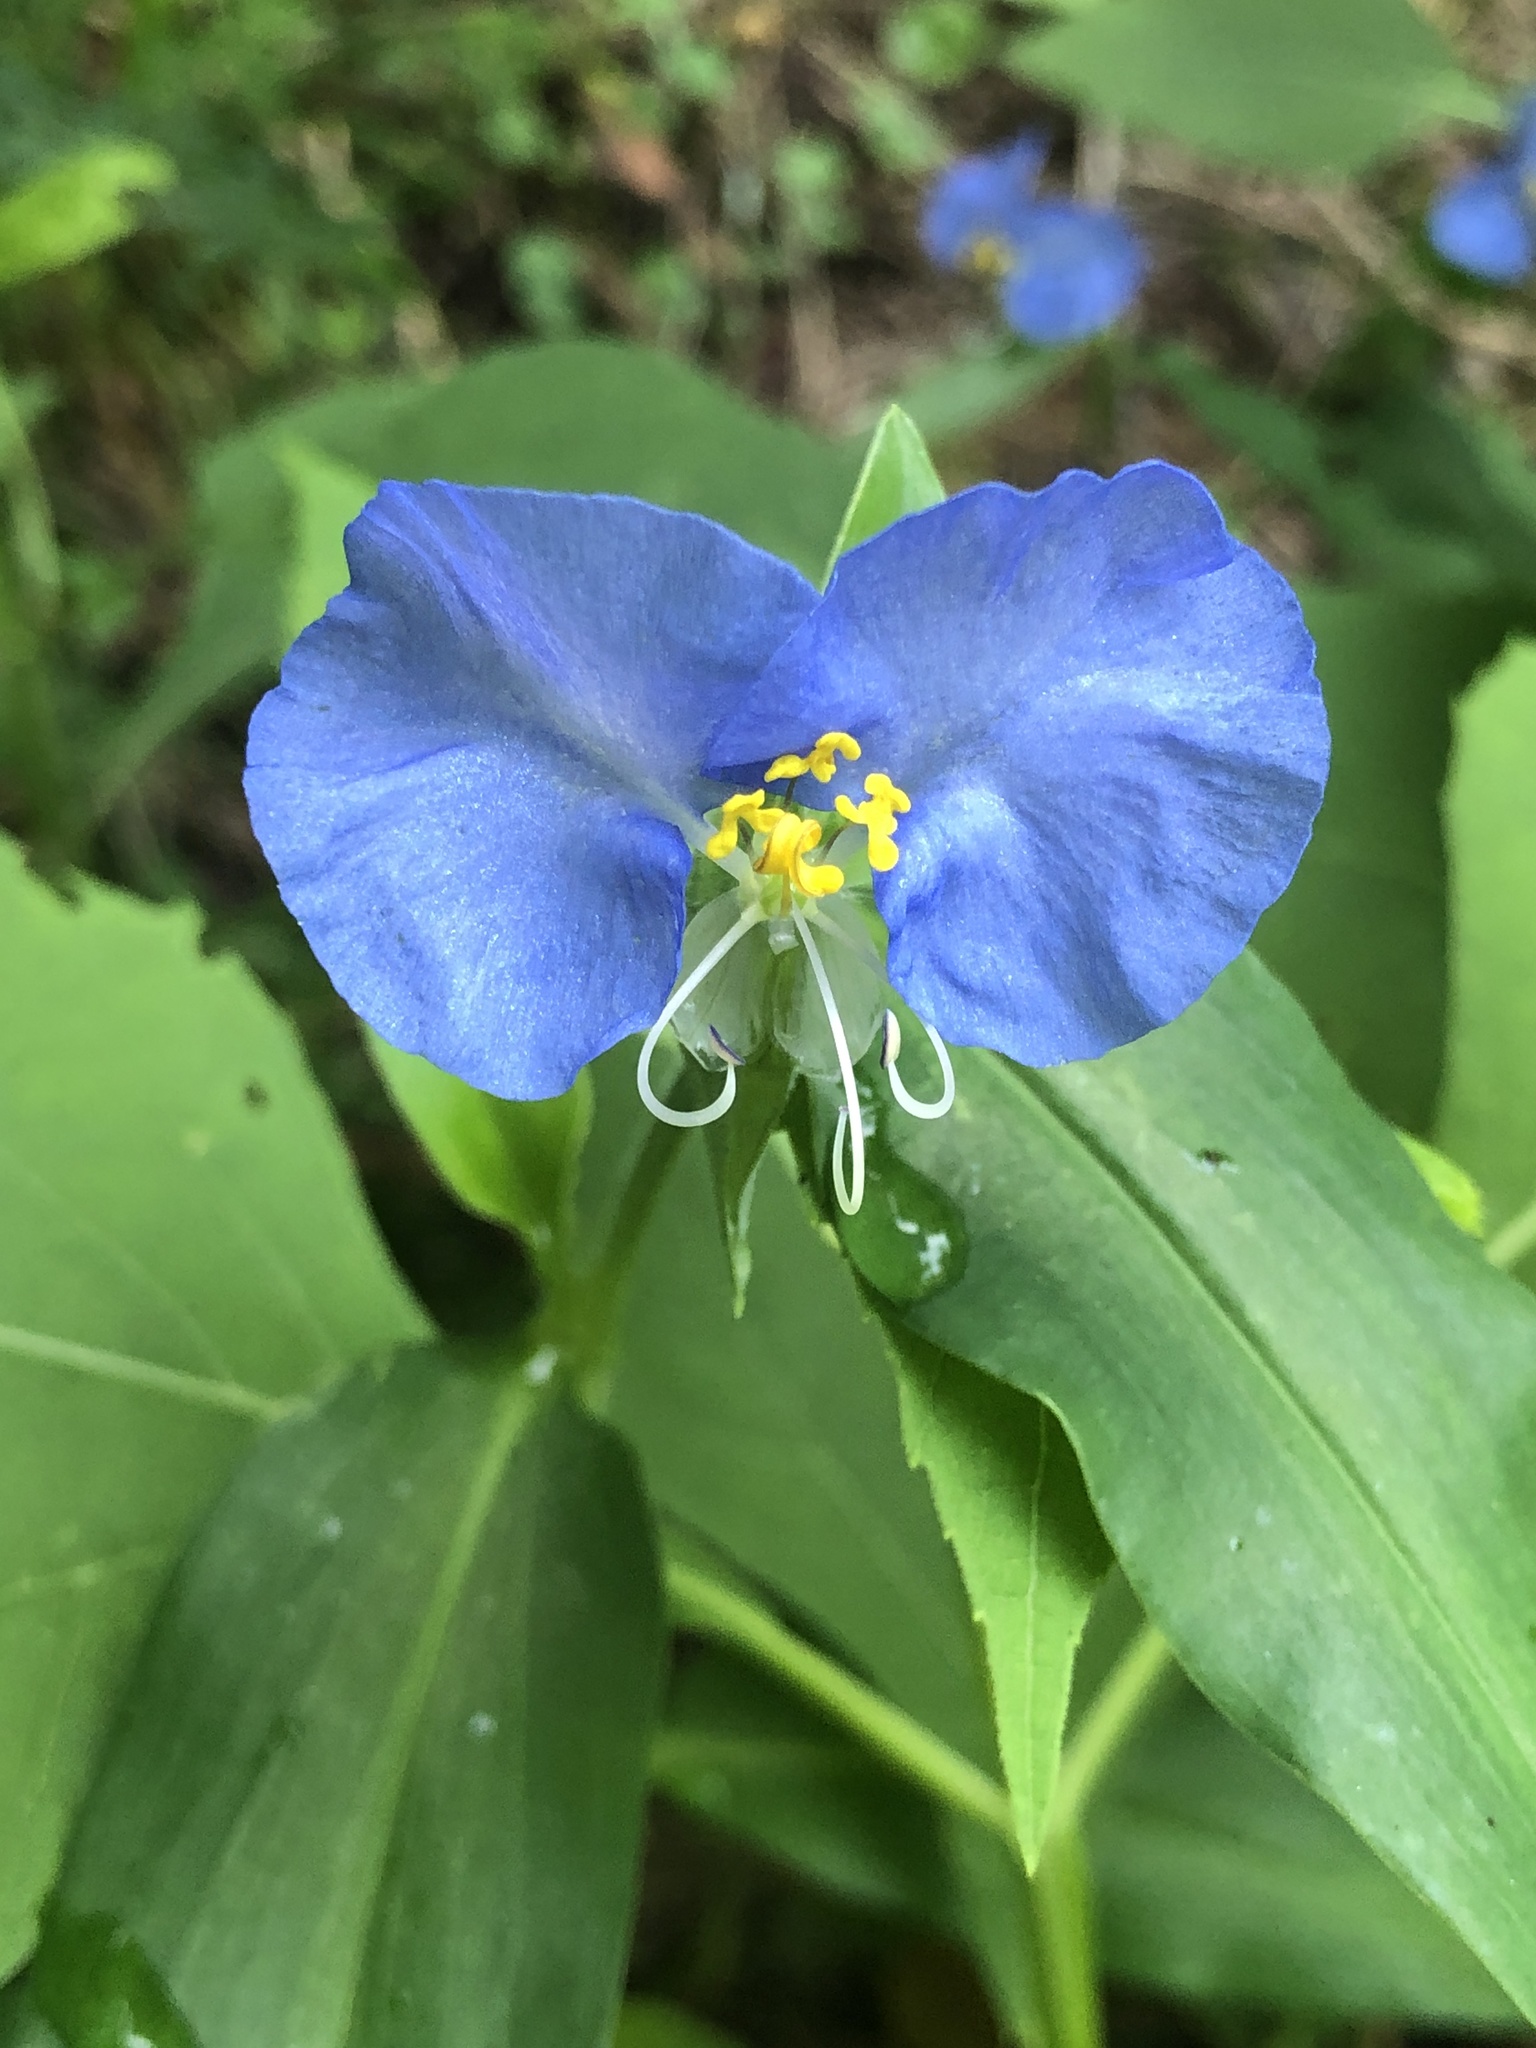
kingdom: Plantae
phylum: Tracheophyta
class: Liliopsida
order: Commelinales
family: Commelinaceae
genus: Commelina
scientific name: Commelina communis
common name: Asiatic dayflower
